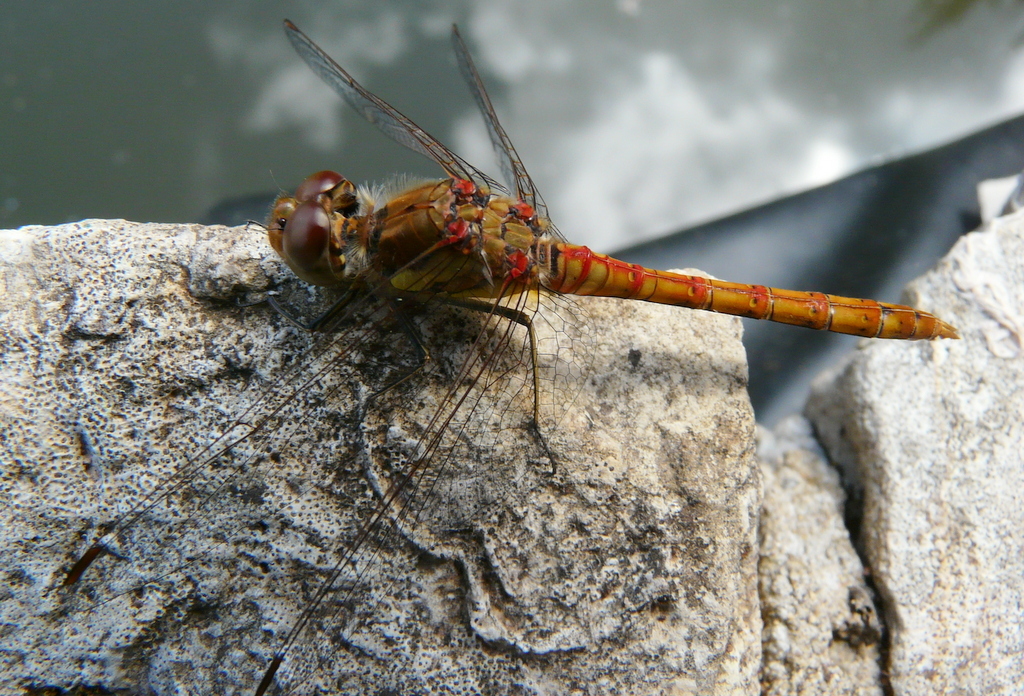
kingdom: Animalia
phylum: Arthropoda
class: Insecta
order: Odonata
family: Libellulidae
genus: Sympetrum
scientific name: Sympetrum striolatum
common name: Common darter
